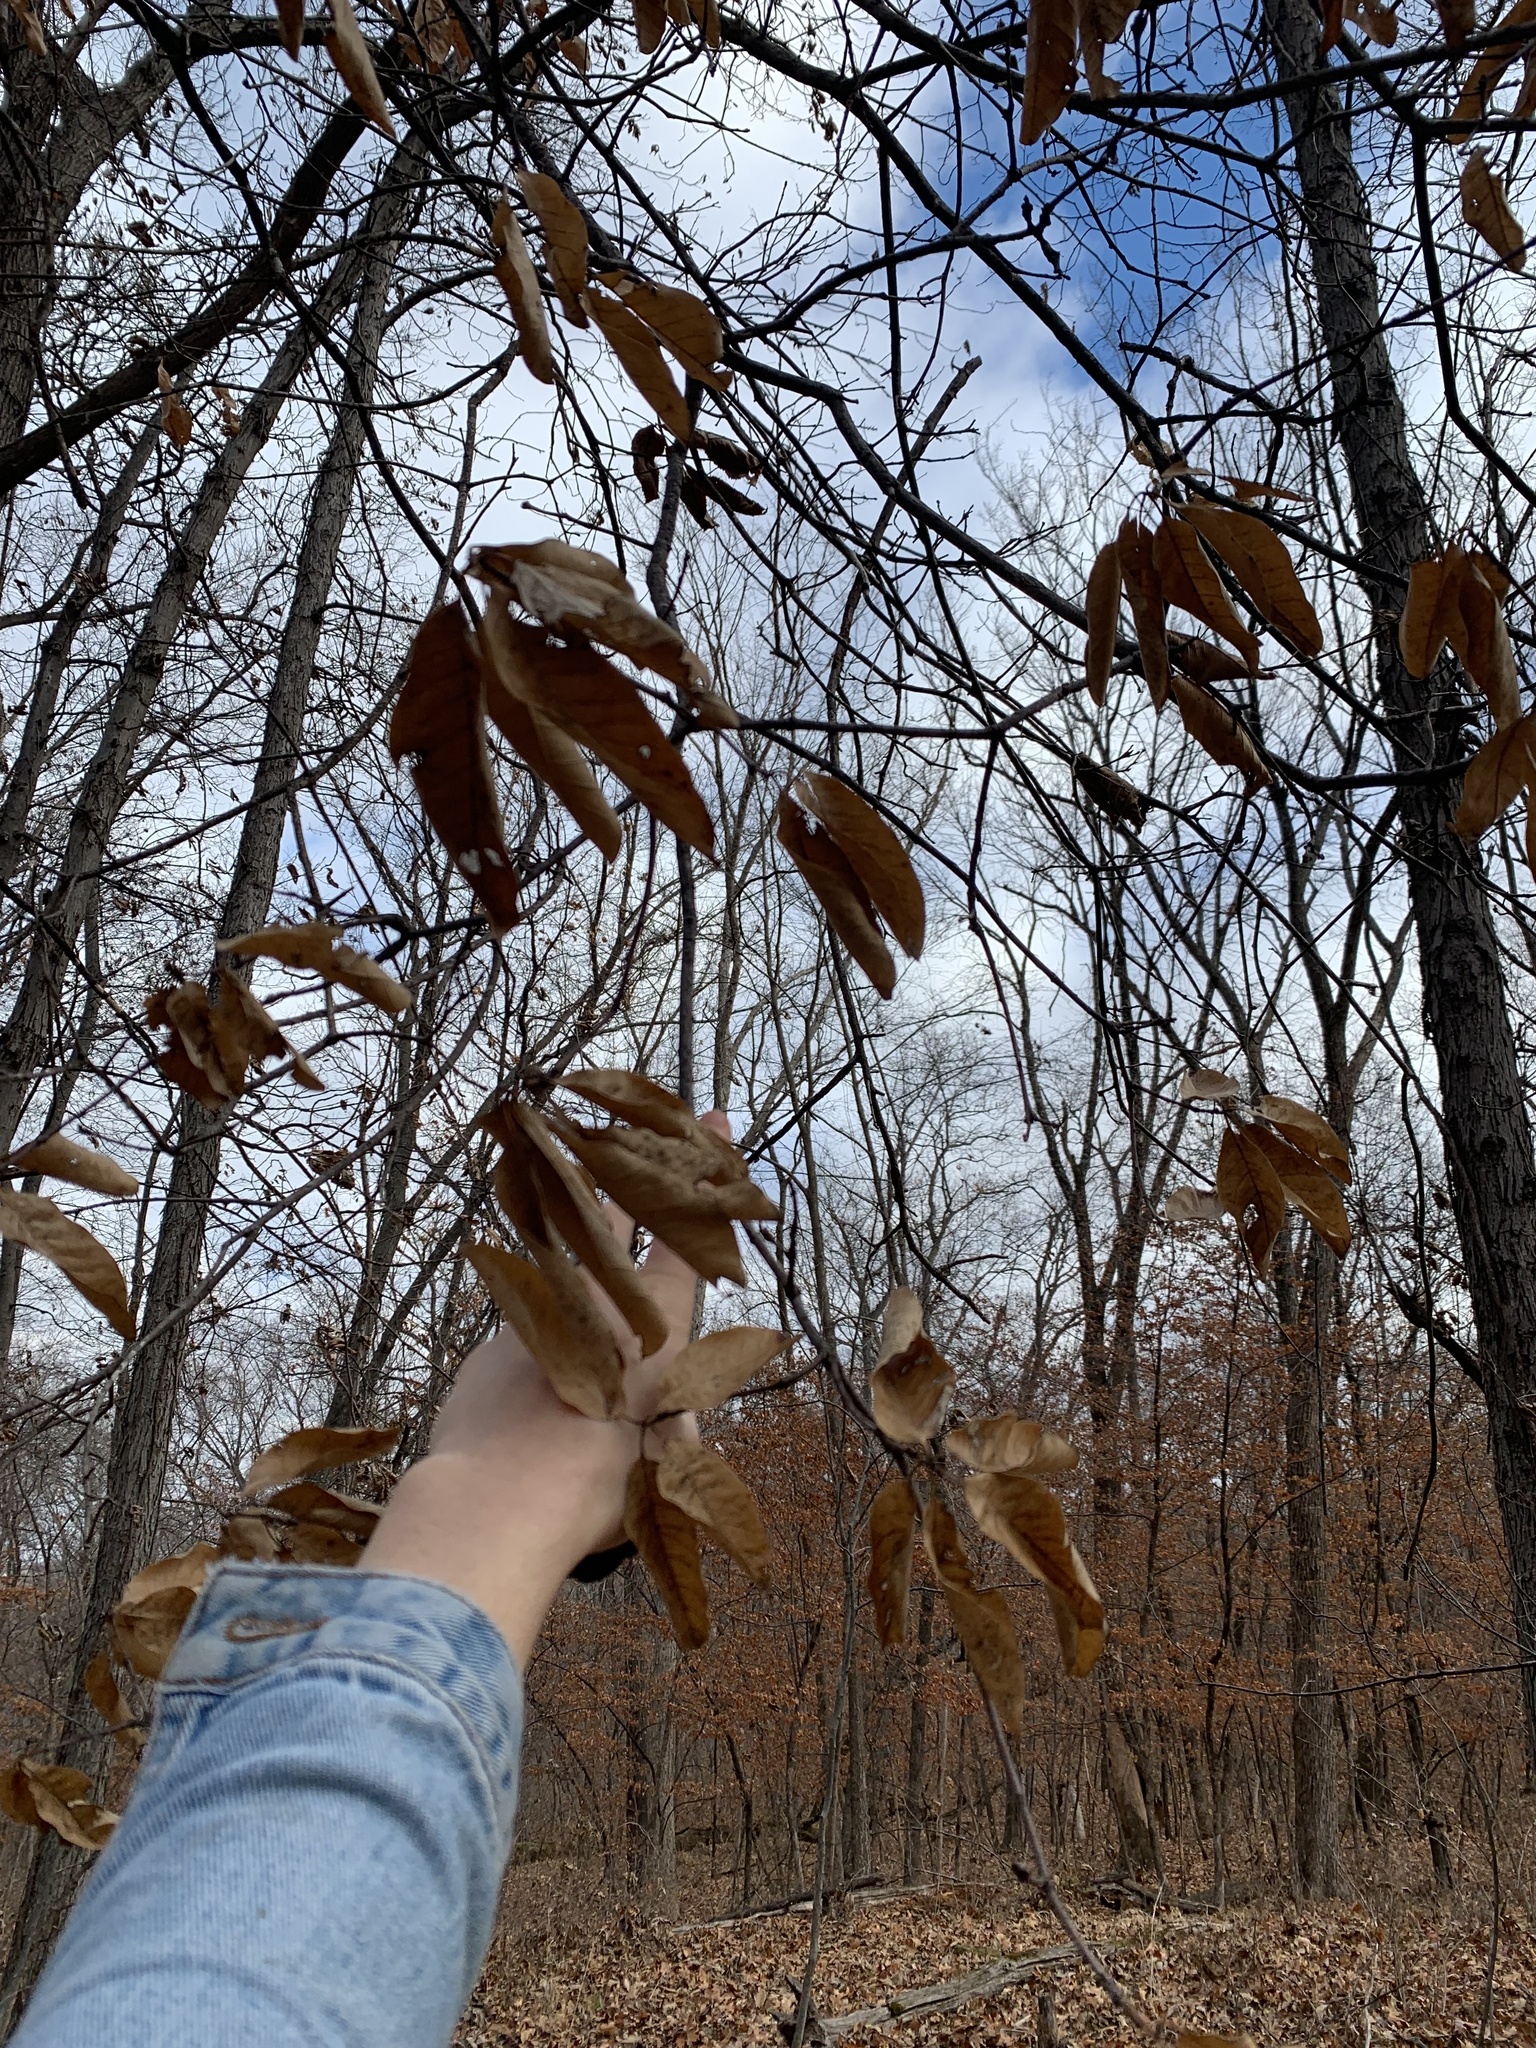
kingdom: Plantae
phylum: Tracheophyta
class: Magnoliopsida
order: Fagales
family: Fagaceae
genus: Quercus
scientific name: Quercus imbricaria
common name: Shingle oak
